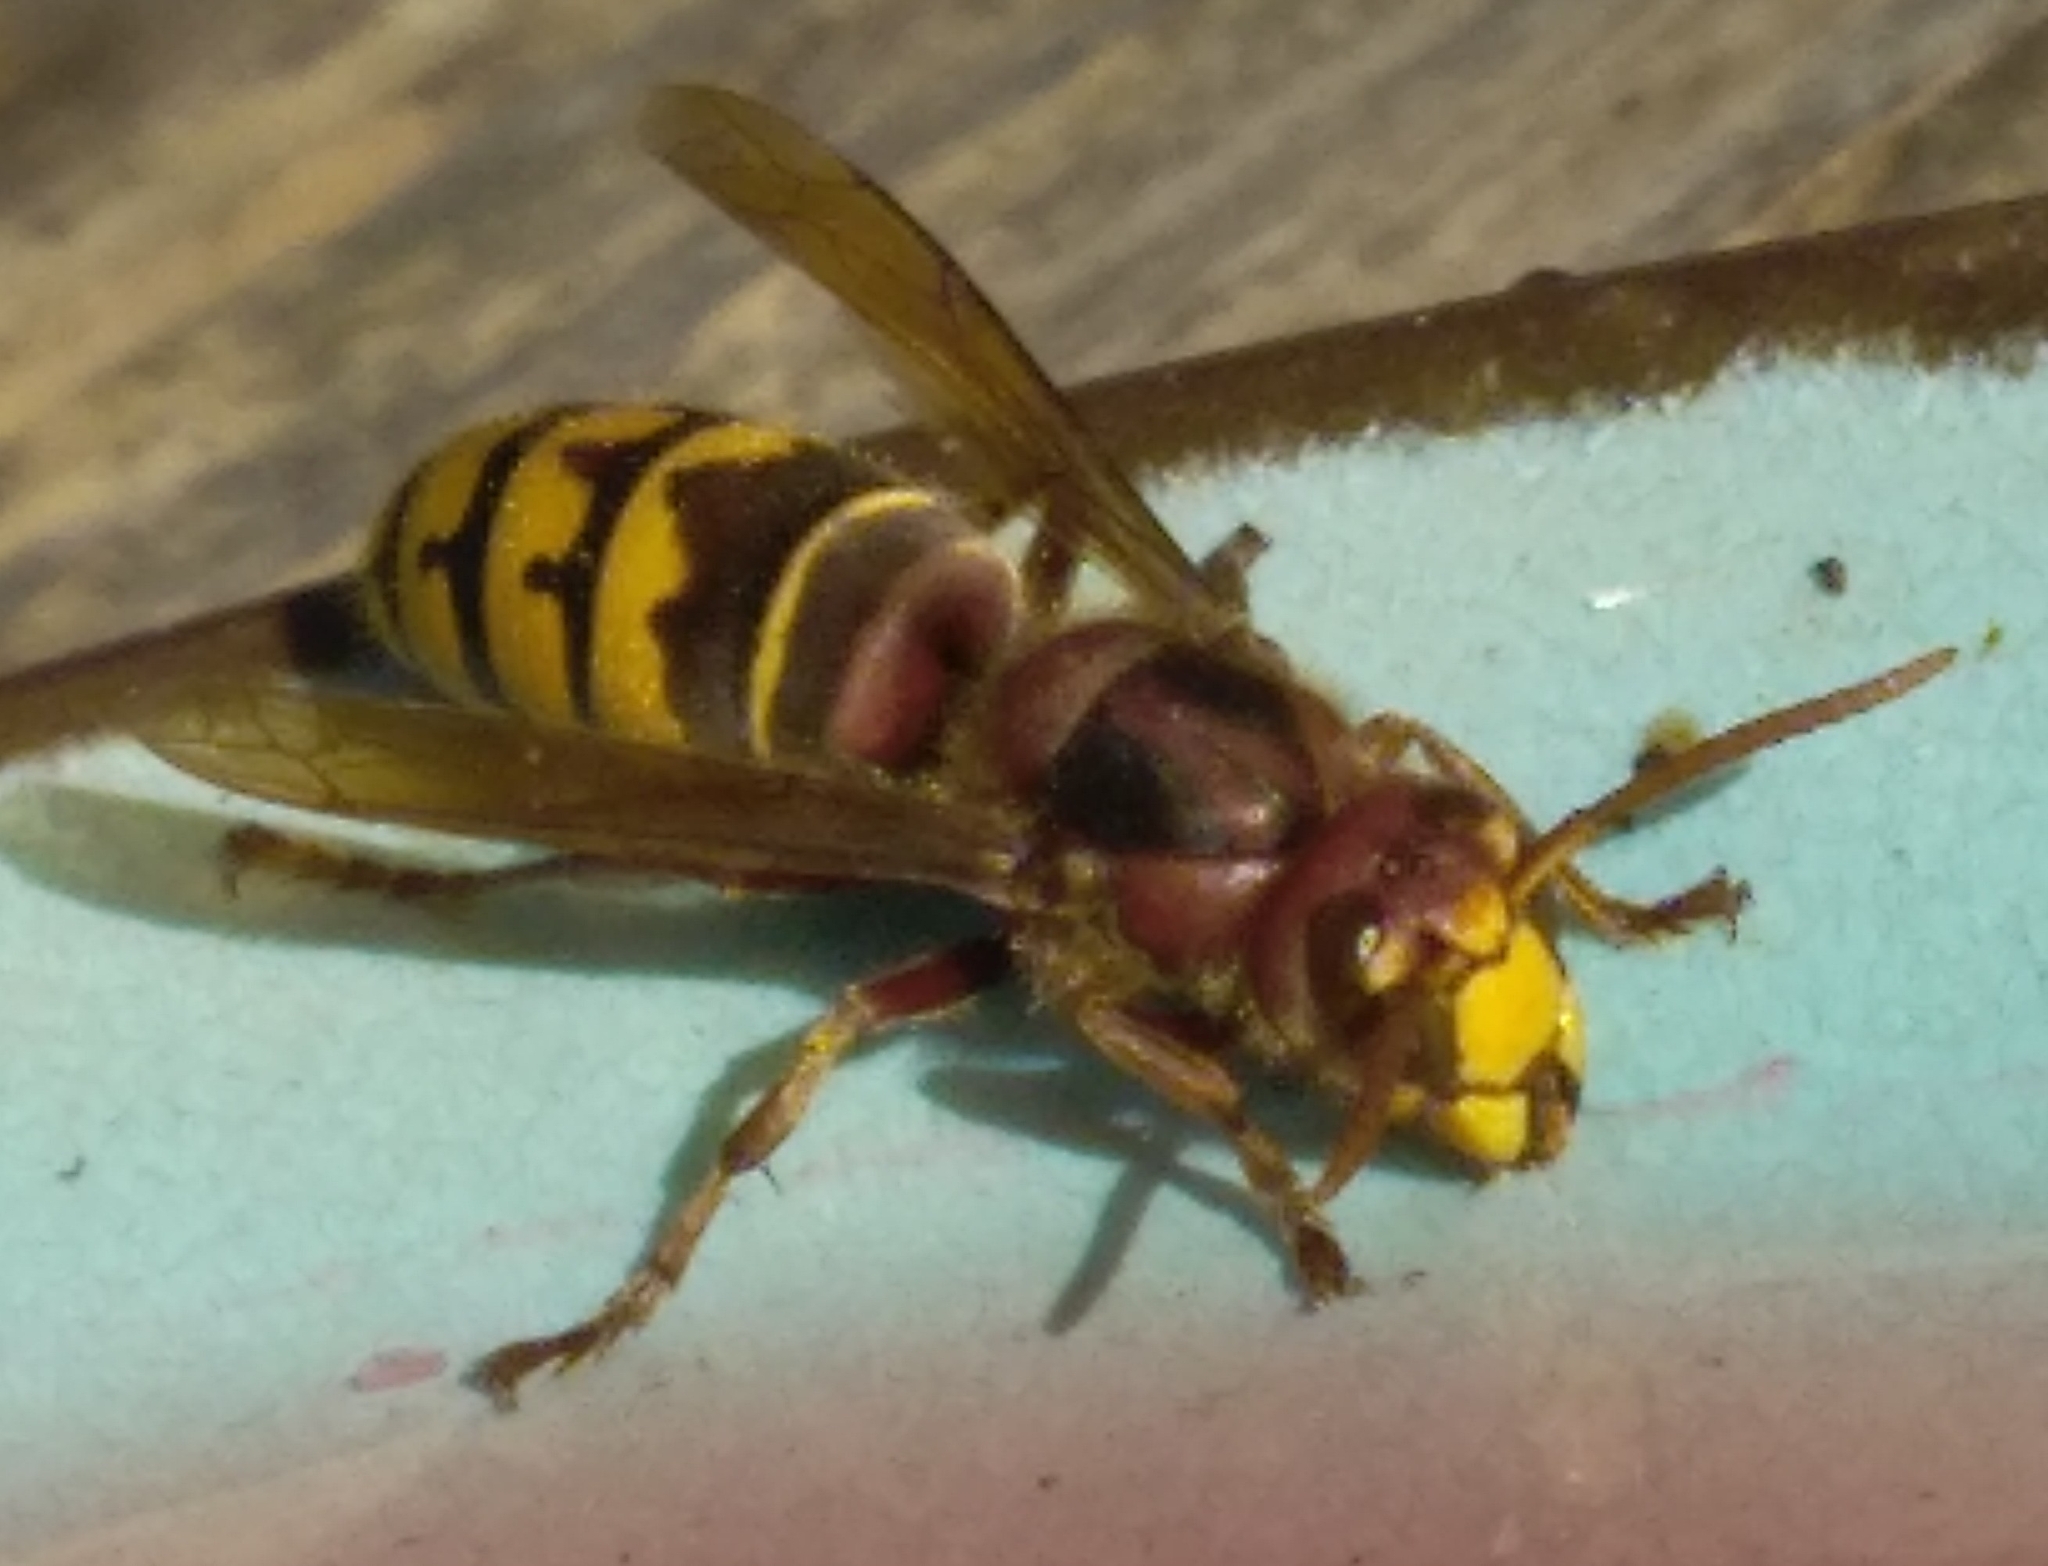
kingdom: Animalia
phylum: Arthropoda
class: Insecta
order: Hymenoptera
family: Vespidae
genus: Vespa
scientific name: Vespa crabro
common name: Hornet
